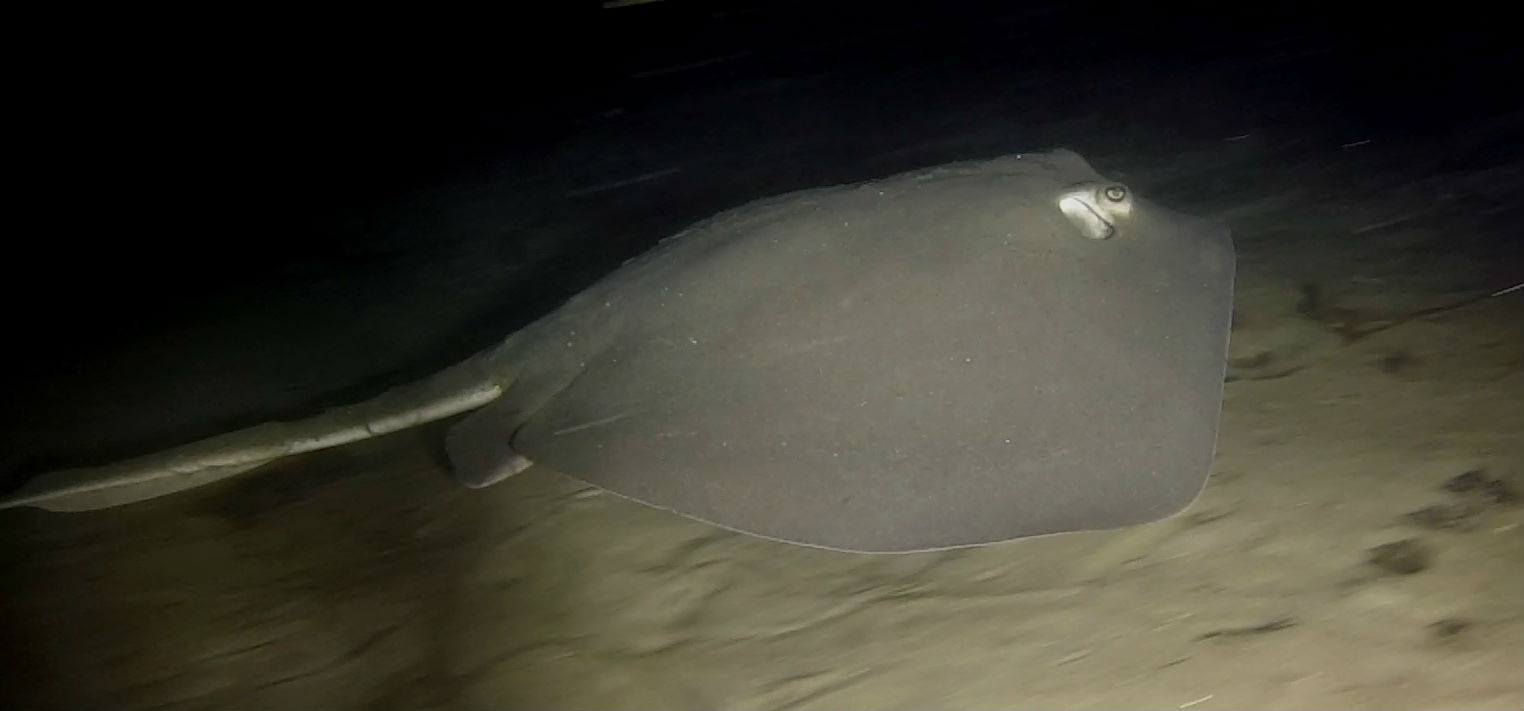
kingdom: Animalia
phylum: Chordata
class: Elasmobranchii
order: Myliobatiformes
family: Dasyatidae
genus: Hypanus
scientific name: Hypanus dipterurus
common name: Diamond stingray
